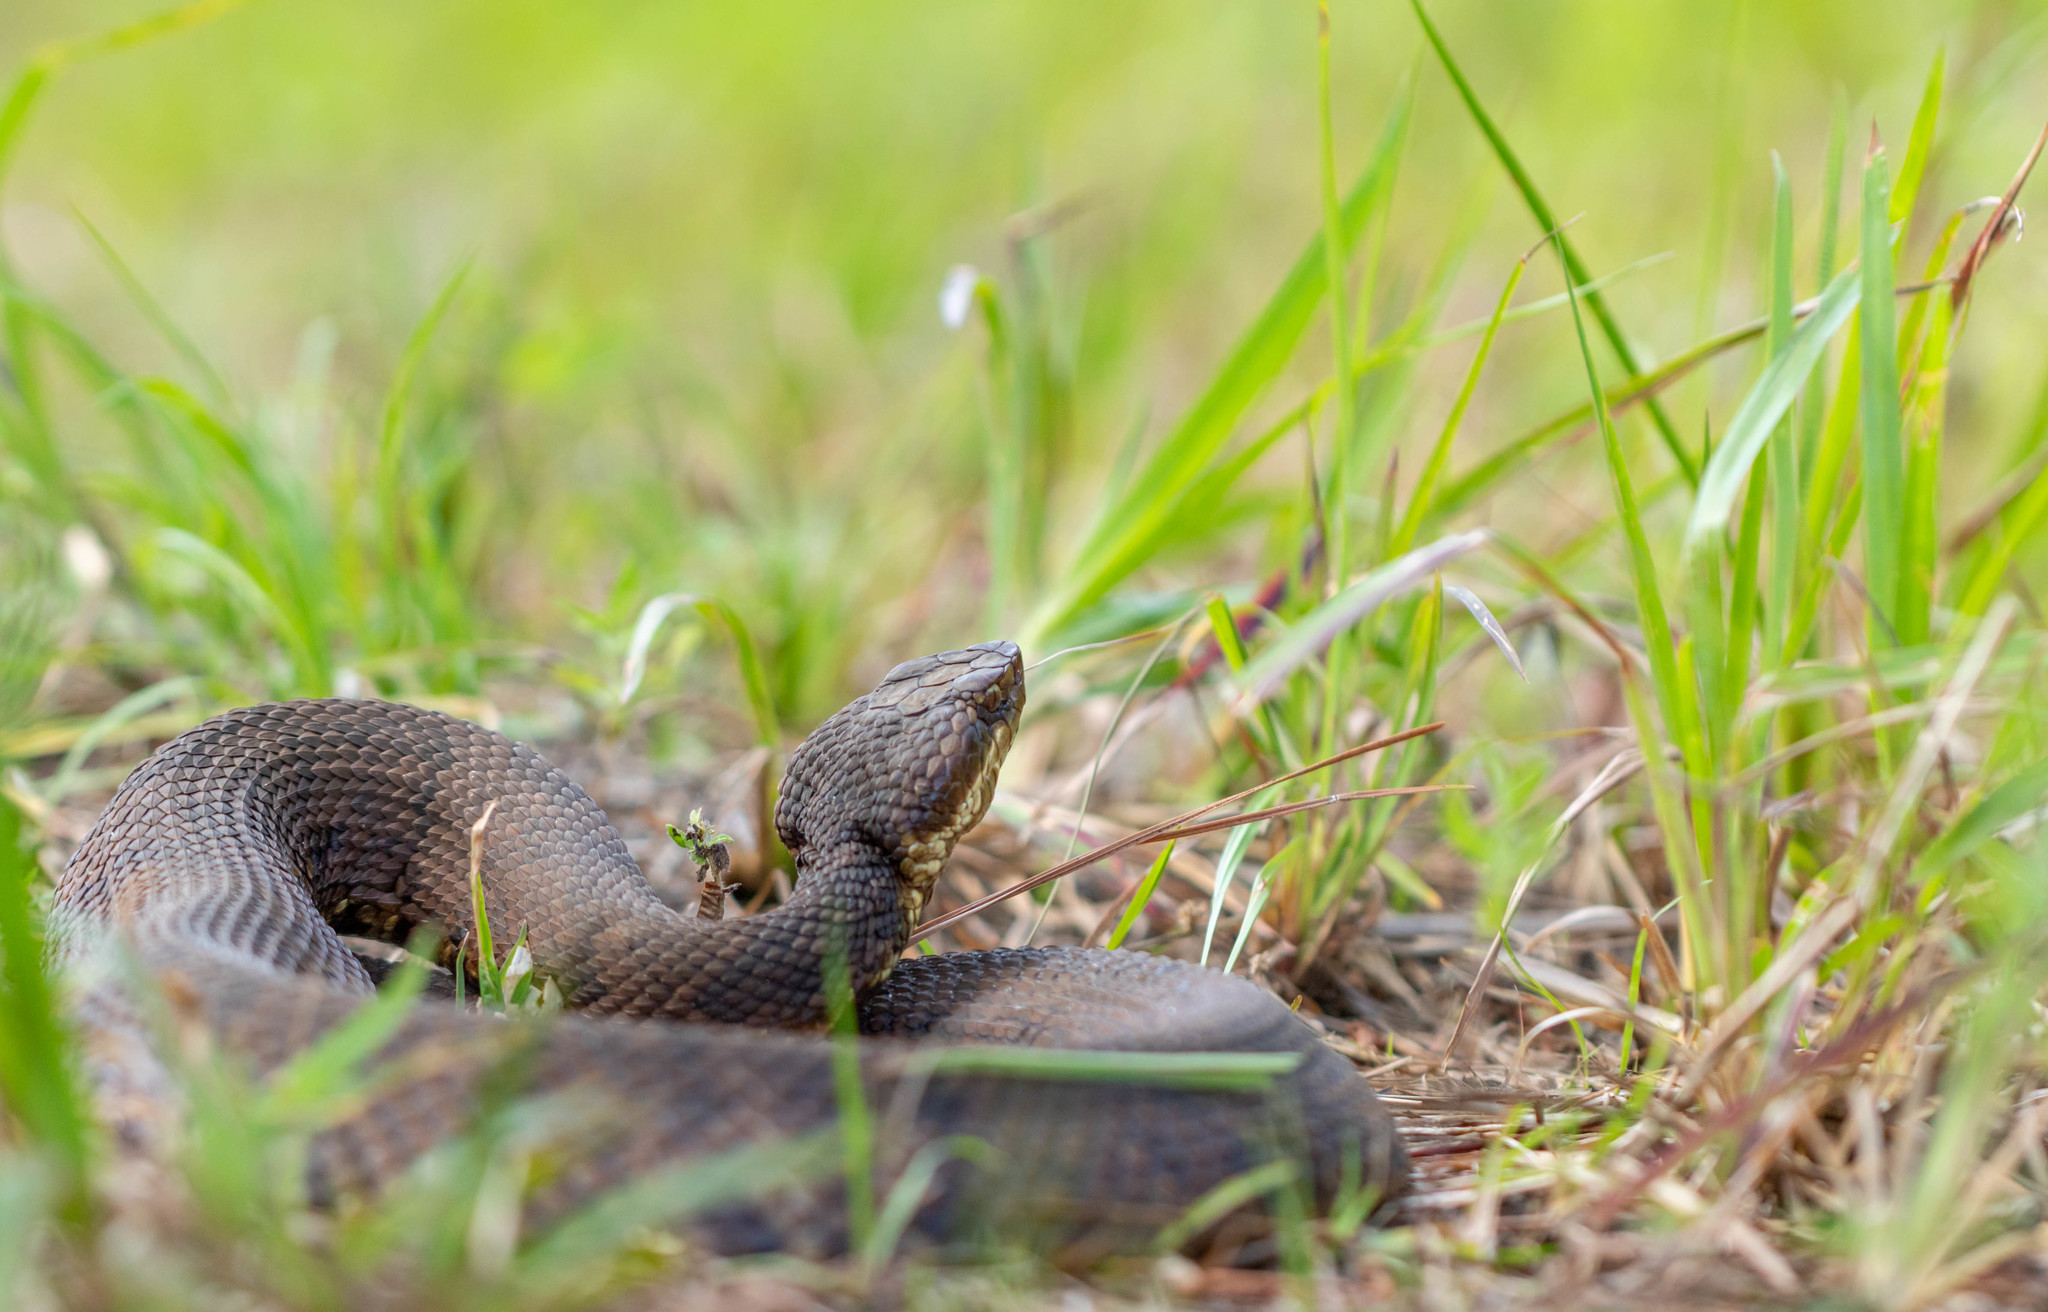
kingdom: Animalia
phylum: Chordata
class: Squamata
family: Viperidae
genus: Agkistrodon
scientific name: Agkistrodon piscivorus
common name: Cottonmouth
